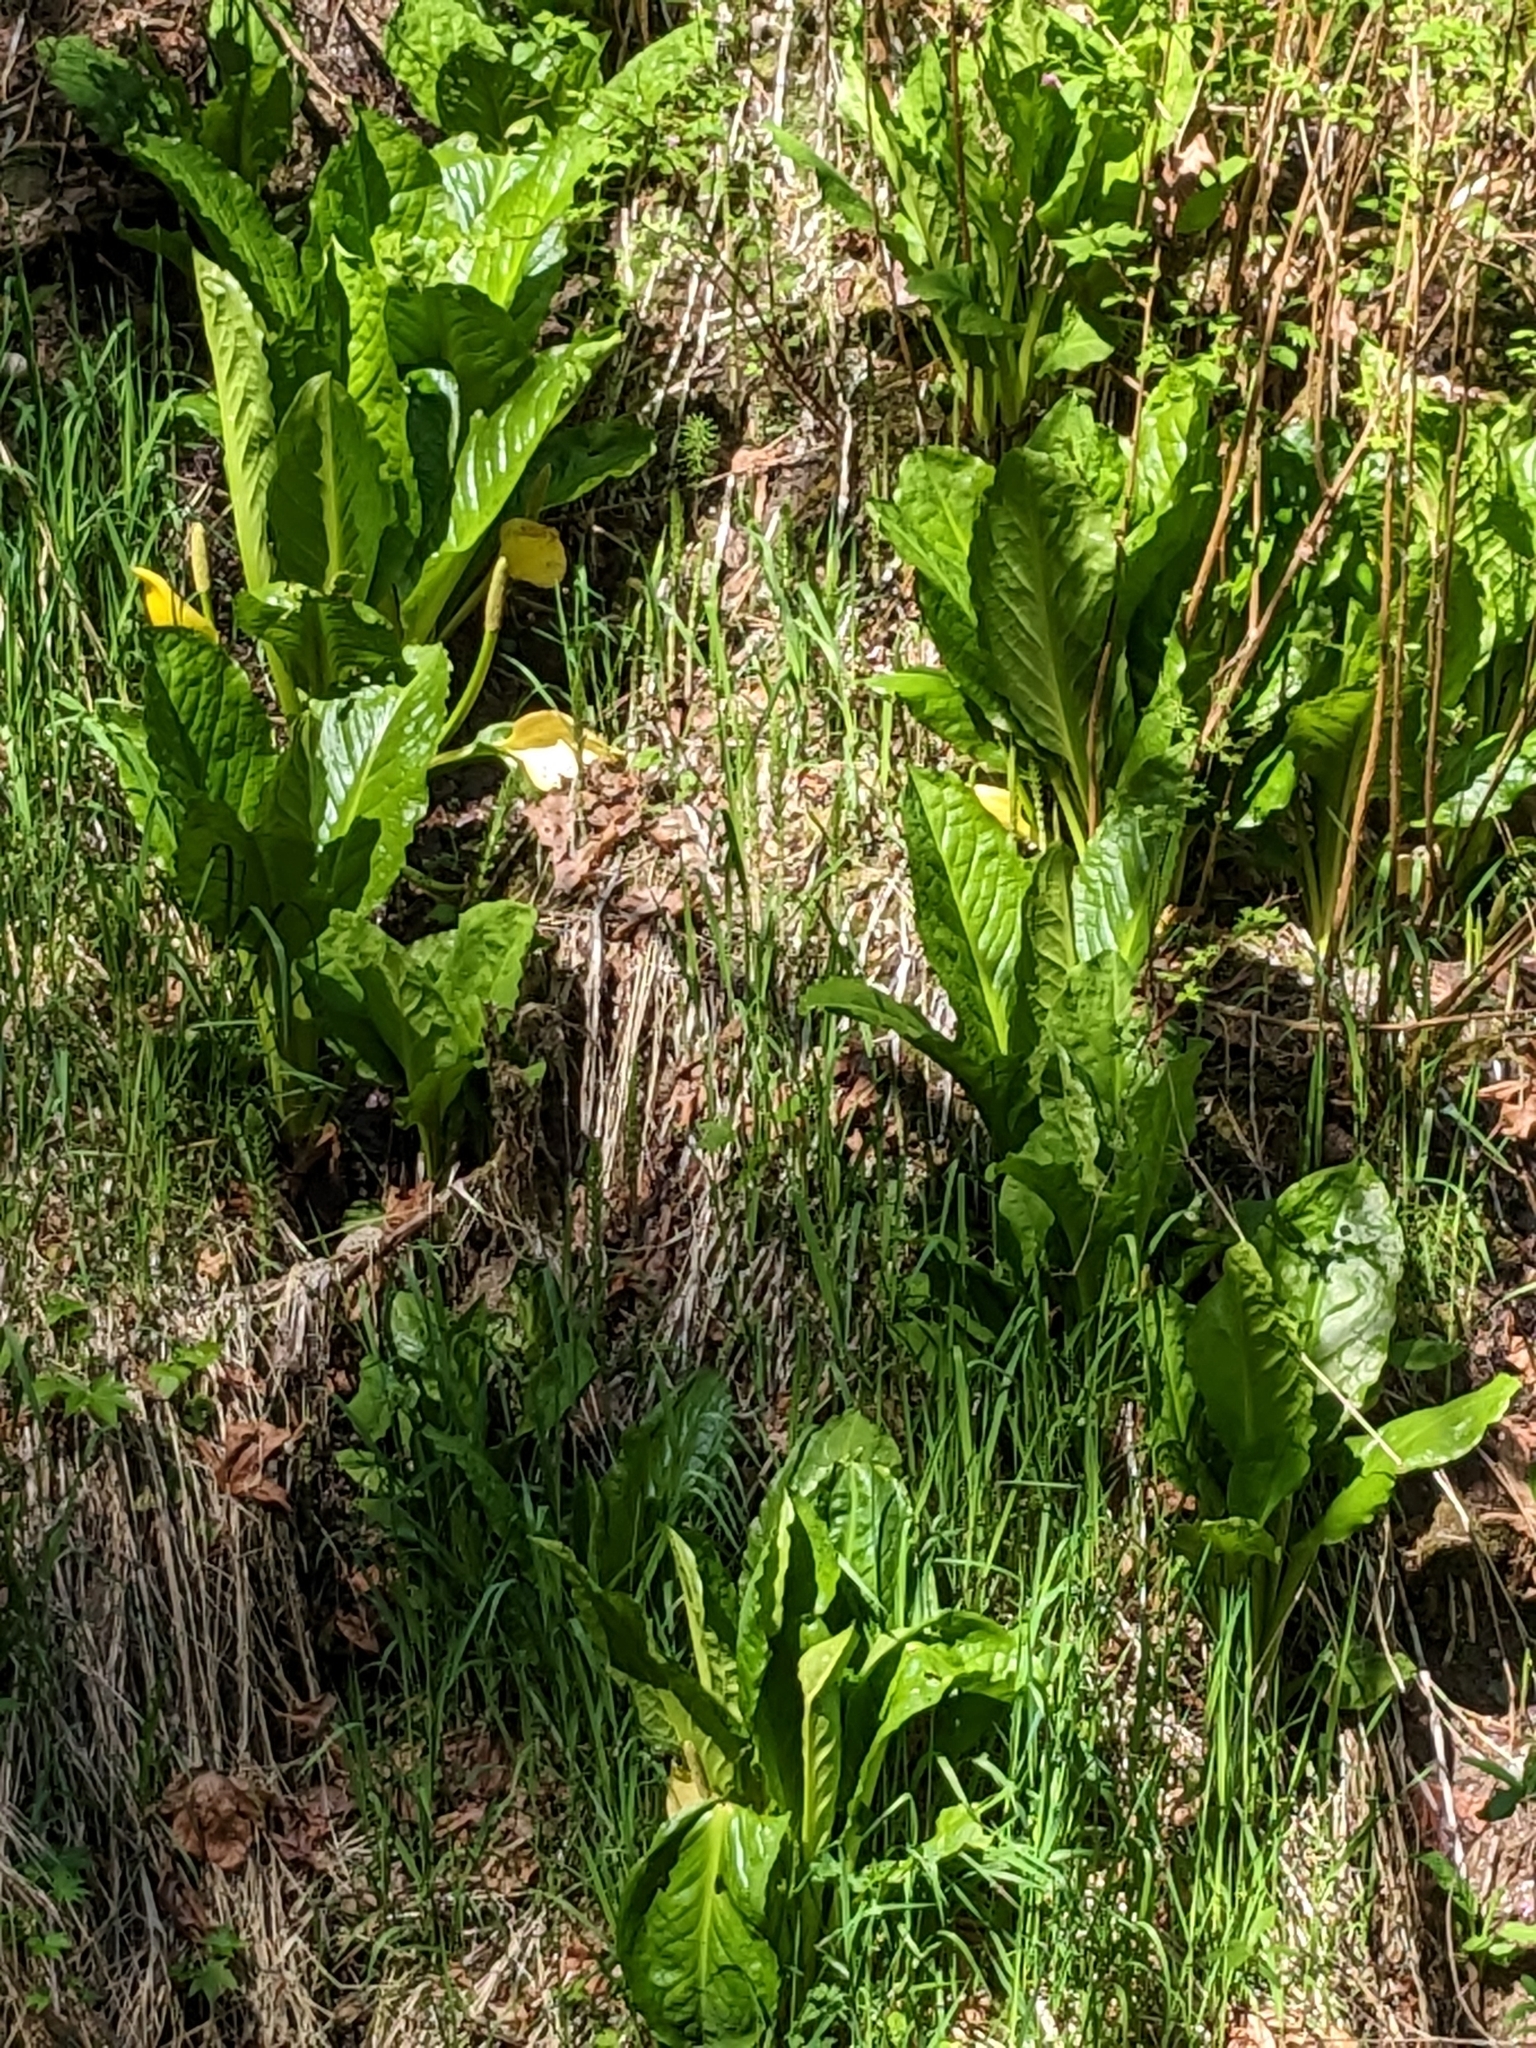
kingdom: Plantae
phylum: Tracheophyta
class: Liliopsida
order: Alismatales
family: Araceae
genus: Lysichiton
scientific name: Lysichiton americanus
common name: American skunk cabbage
